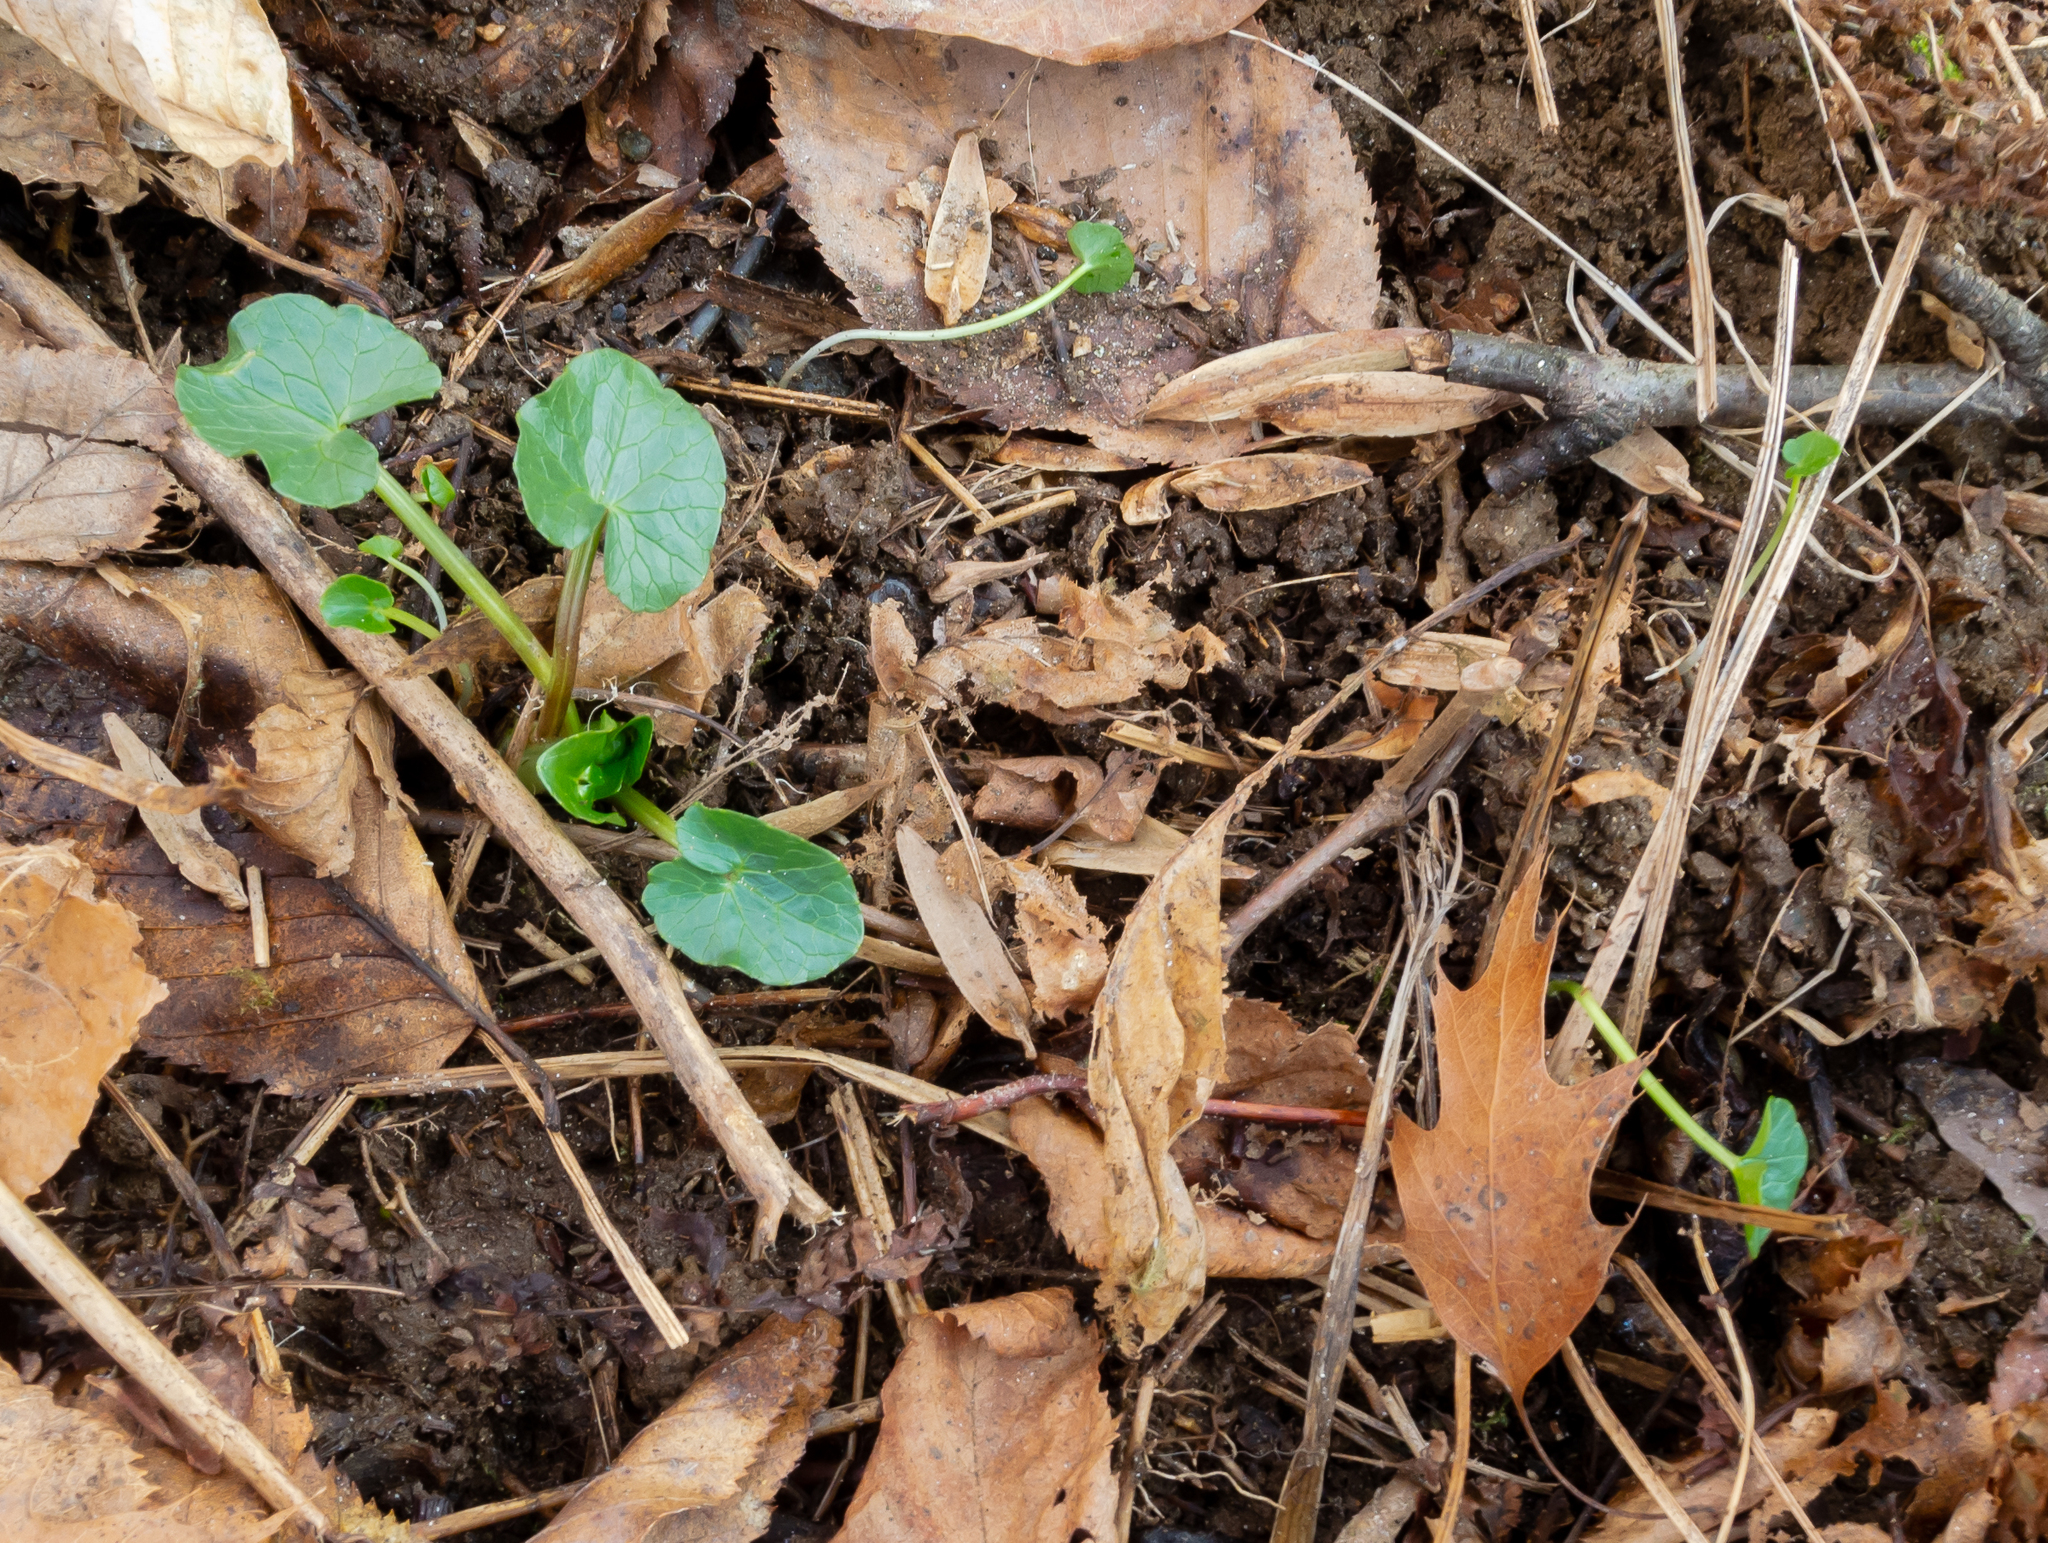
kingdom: Plantae
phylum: Tracheophyta
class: Magnoliopsida
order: Ranunculales
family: Ranunculaceae
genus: Ficaria
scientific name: Ficaria verna
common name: Lesser celandine
